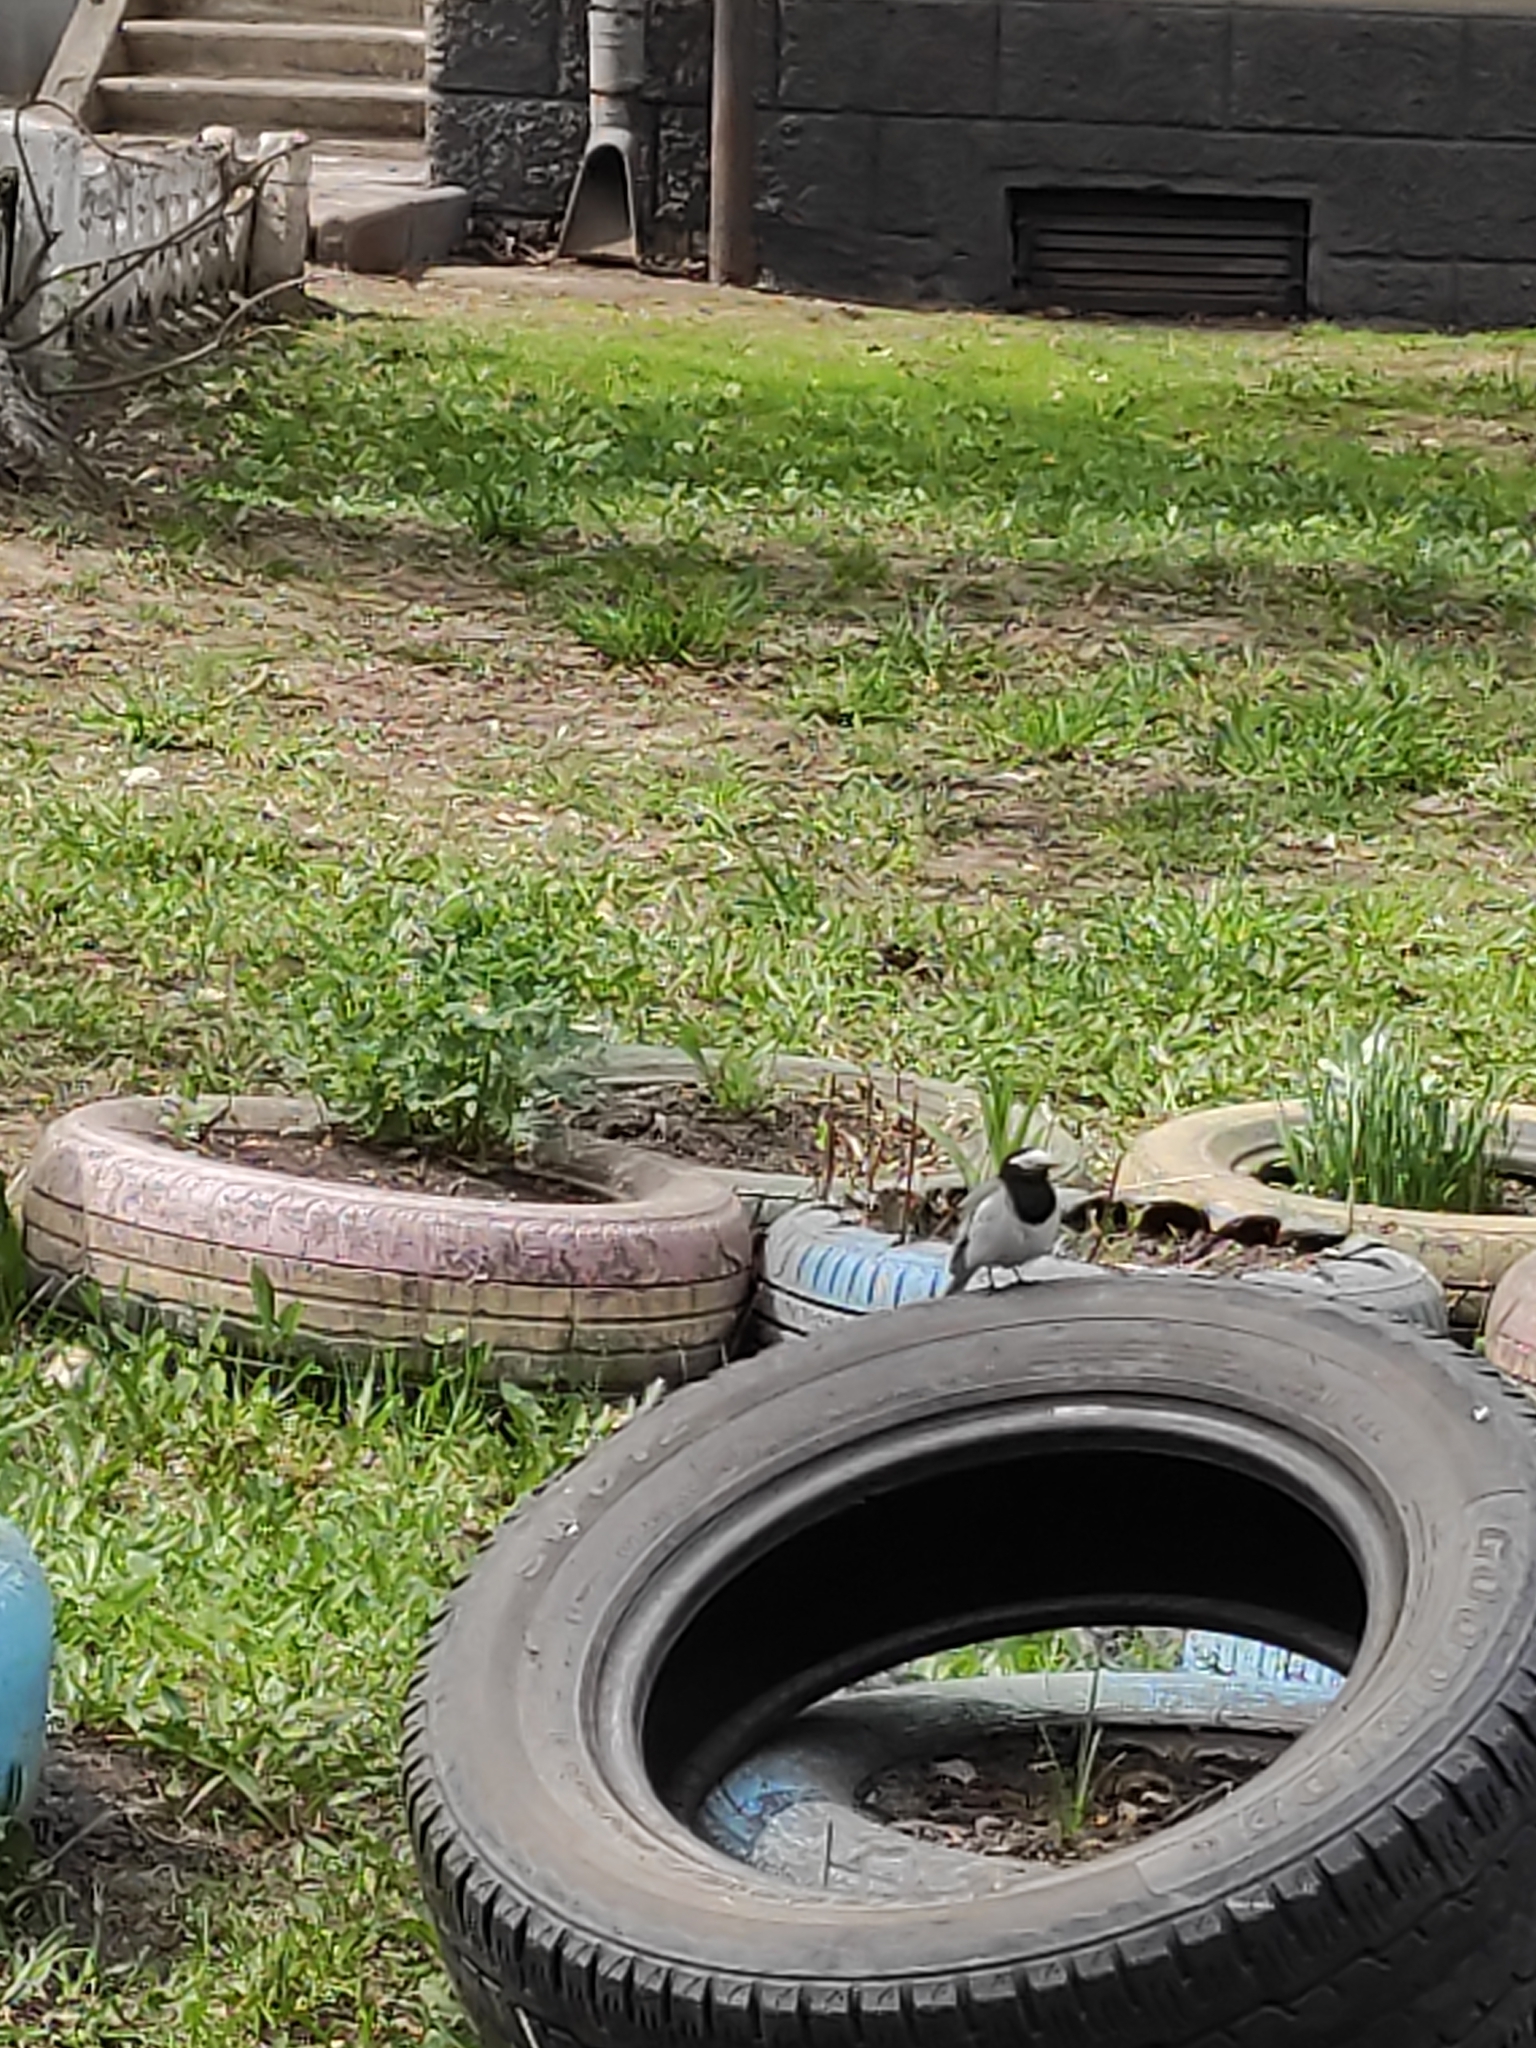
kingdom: Animalia
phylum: Chordata
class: Aves
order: Passeriformes
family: Motacillidae
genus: Motacilla
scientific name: Motacilla alba
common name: White wagtail
